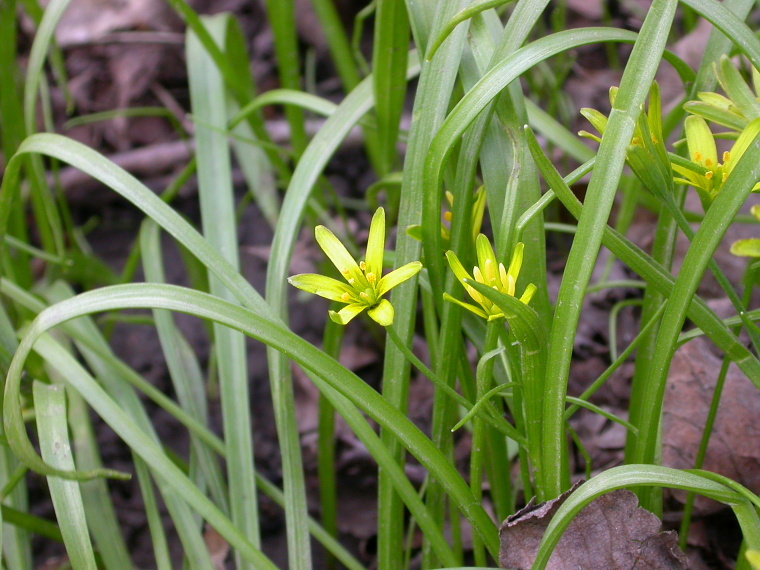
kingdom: Plantae
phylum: Tracheophyta
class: Liliopsida
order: Liliales
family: Liliaceae
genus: Gagea
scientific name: Gagea lutea
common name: Yellow star-of-bethlehem
